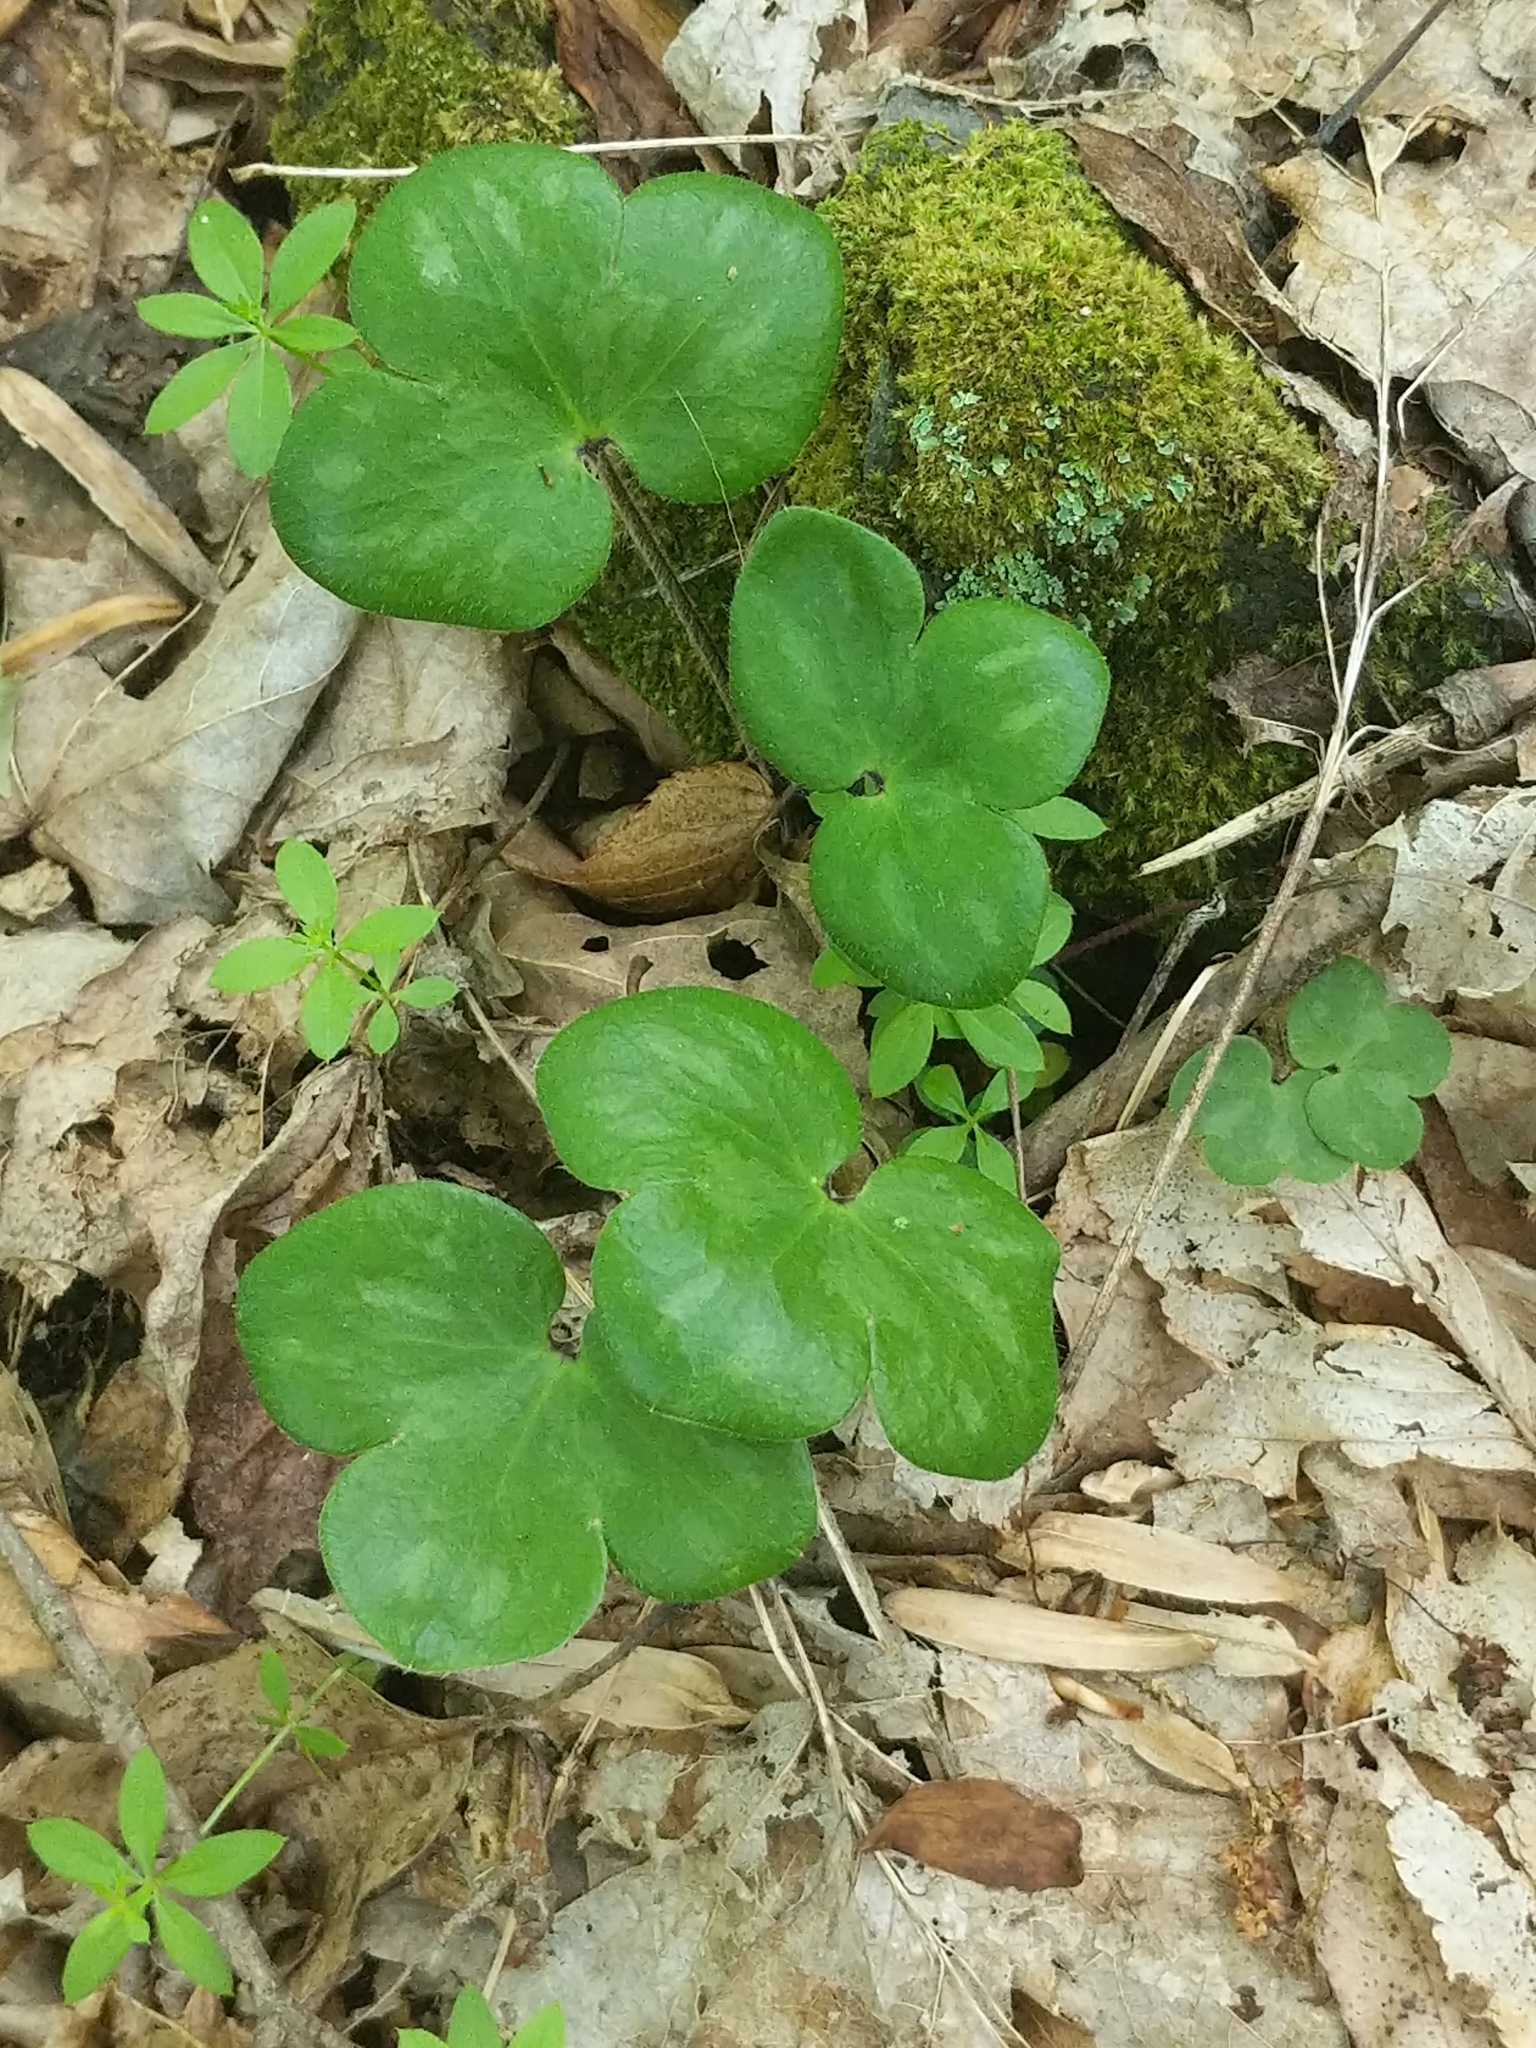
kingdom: Plantae
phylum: Tracheophyta
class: Magnoliopsida
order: Ranunculales
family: Ranunculaceae
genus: Hepatica
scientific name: Hepatica americana
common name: American hepatica
